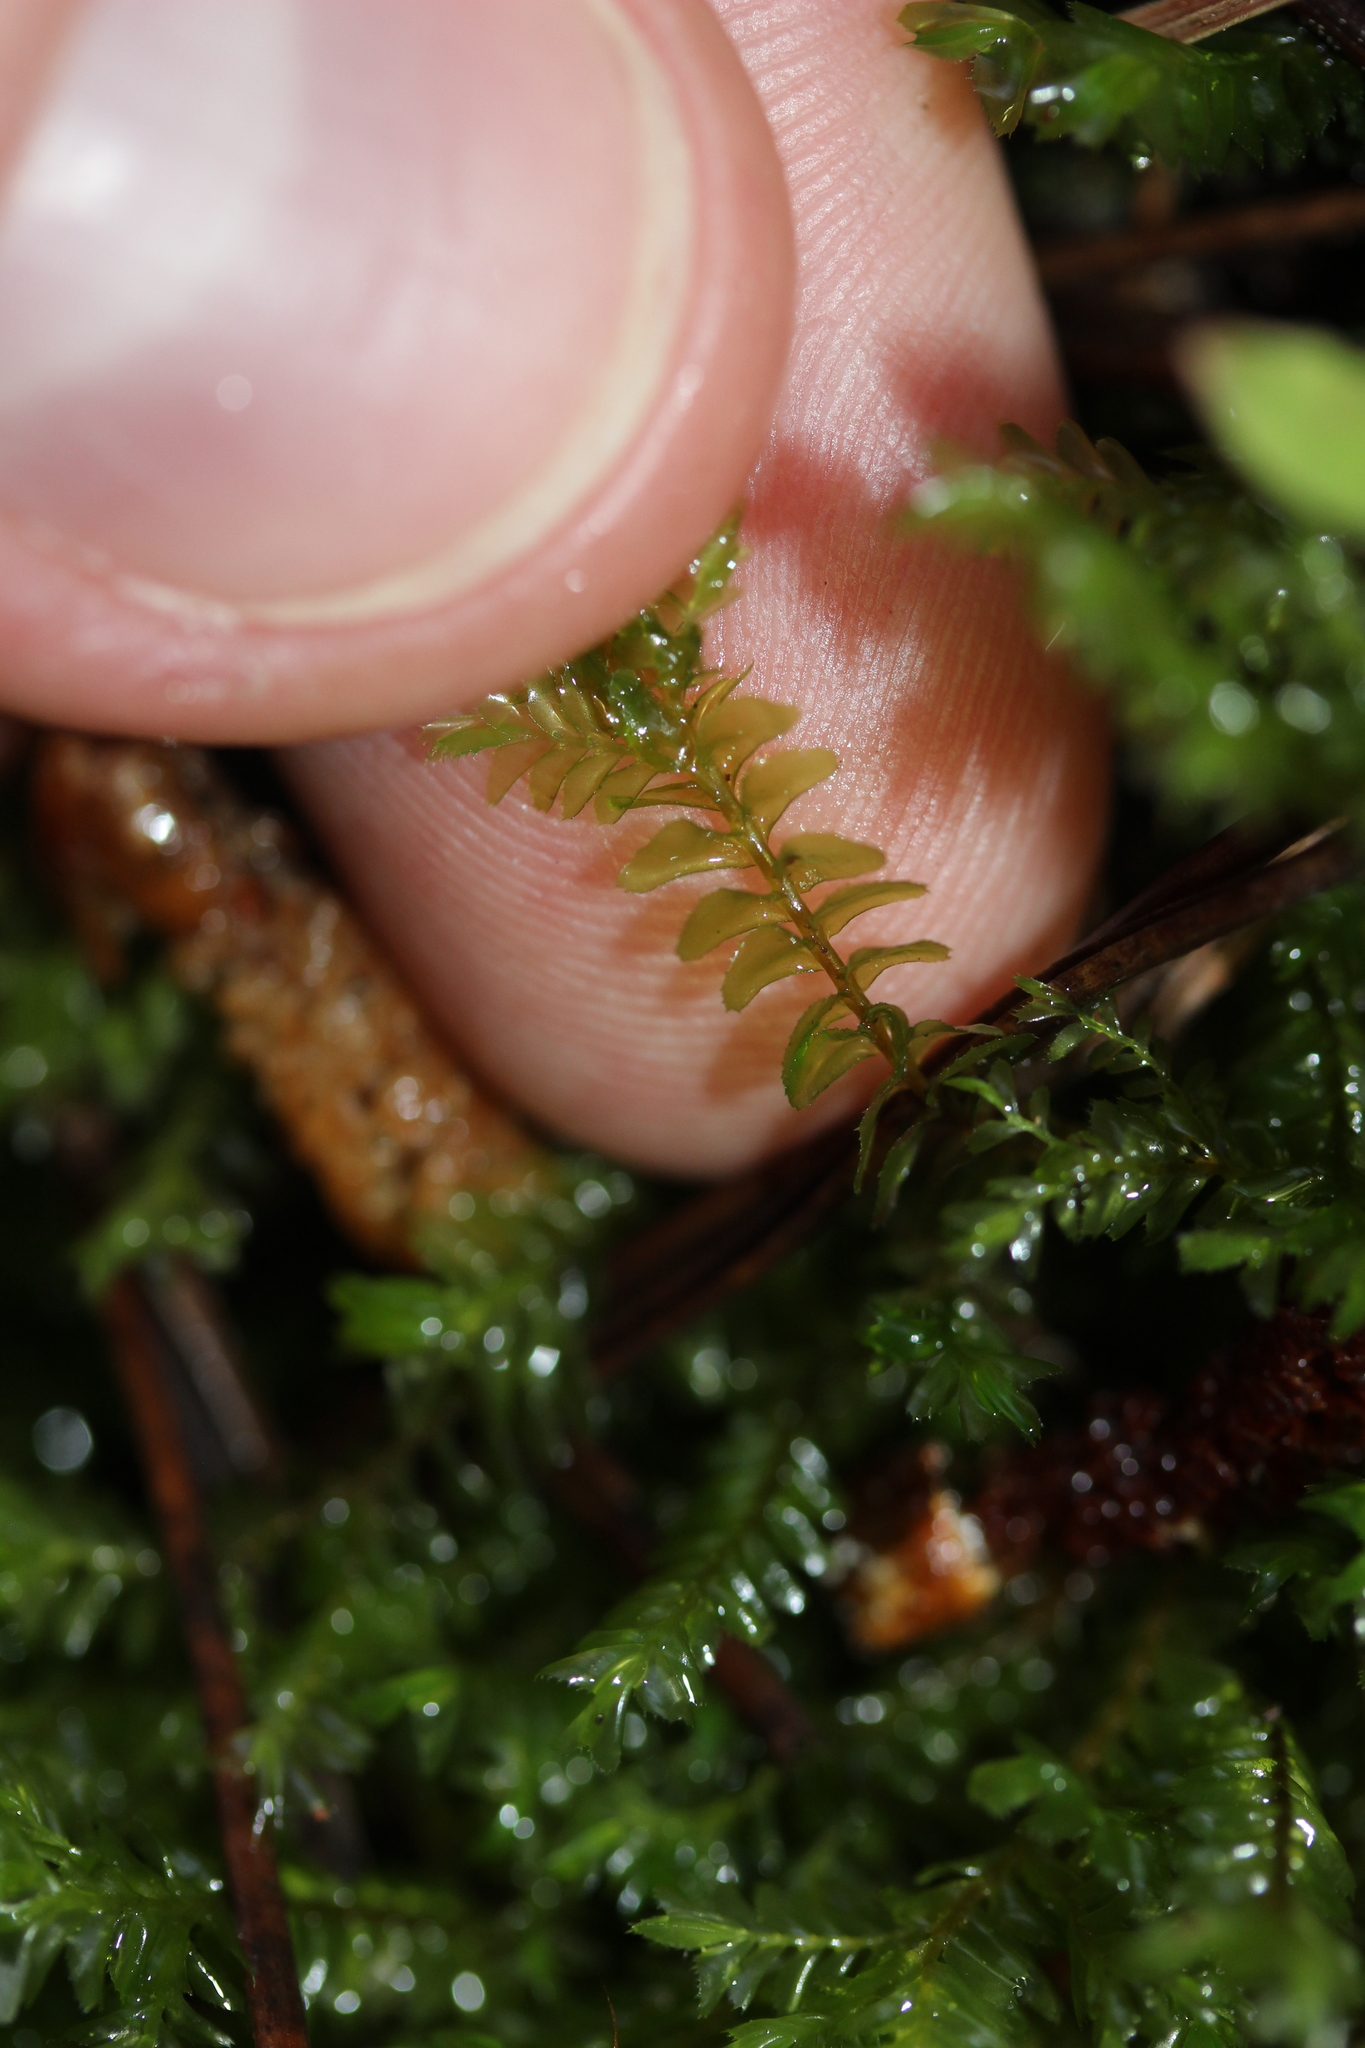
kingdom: Plantae
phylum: Marchantiophyta
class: Jungermanniopsida
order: Jungermanniales
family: Plagiochilaceae
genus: Plagiochila
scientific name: Plagiochila trispicata
